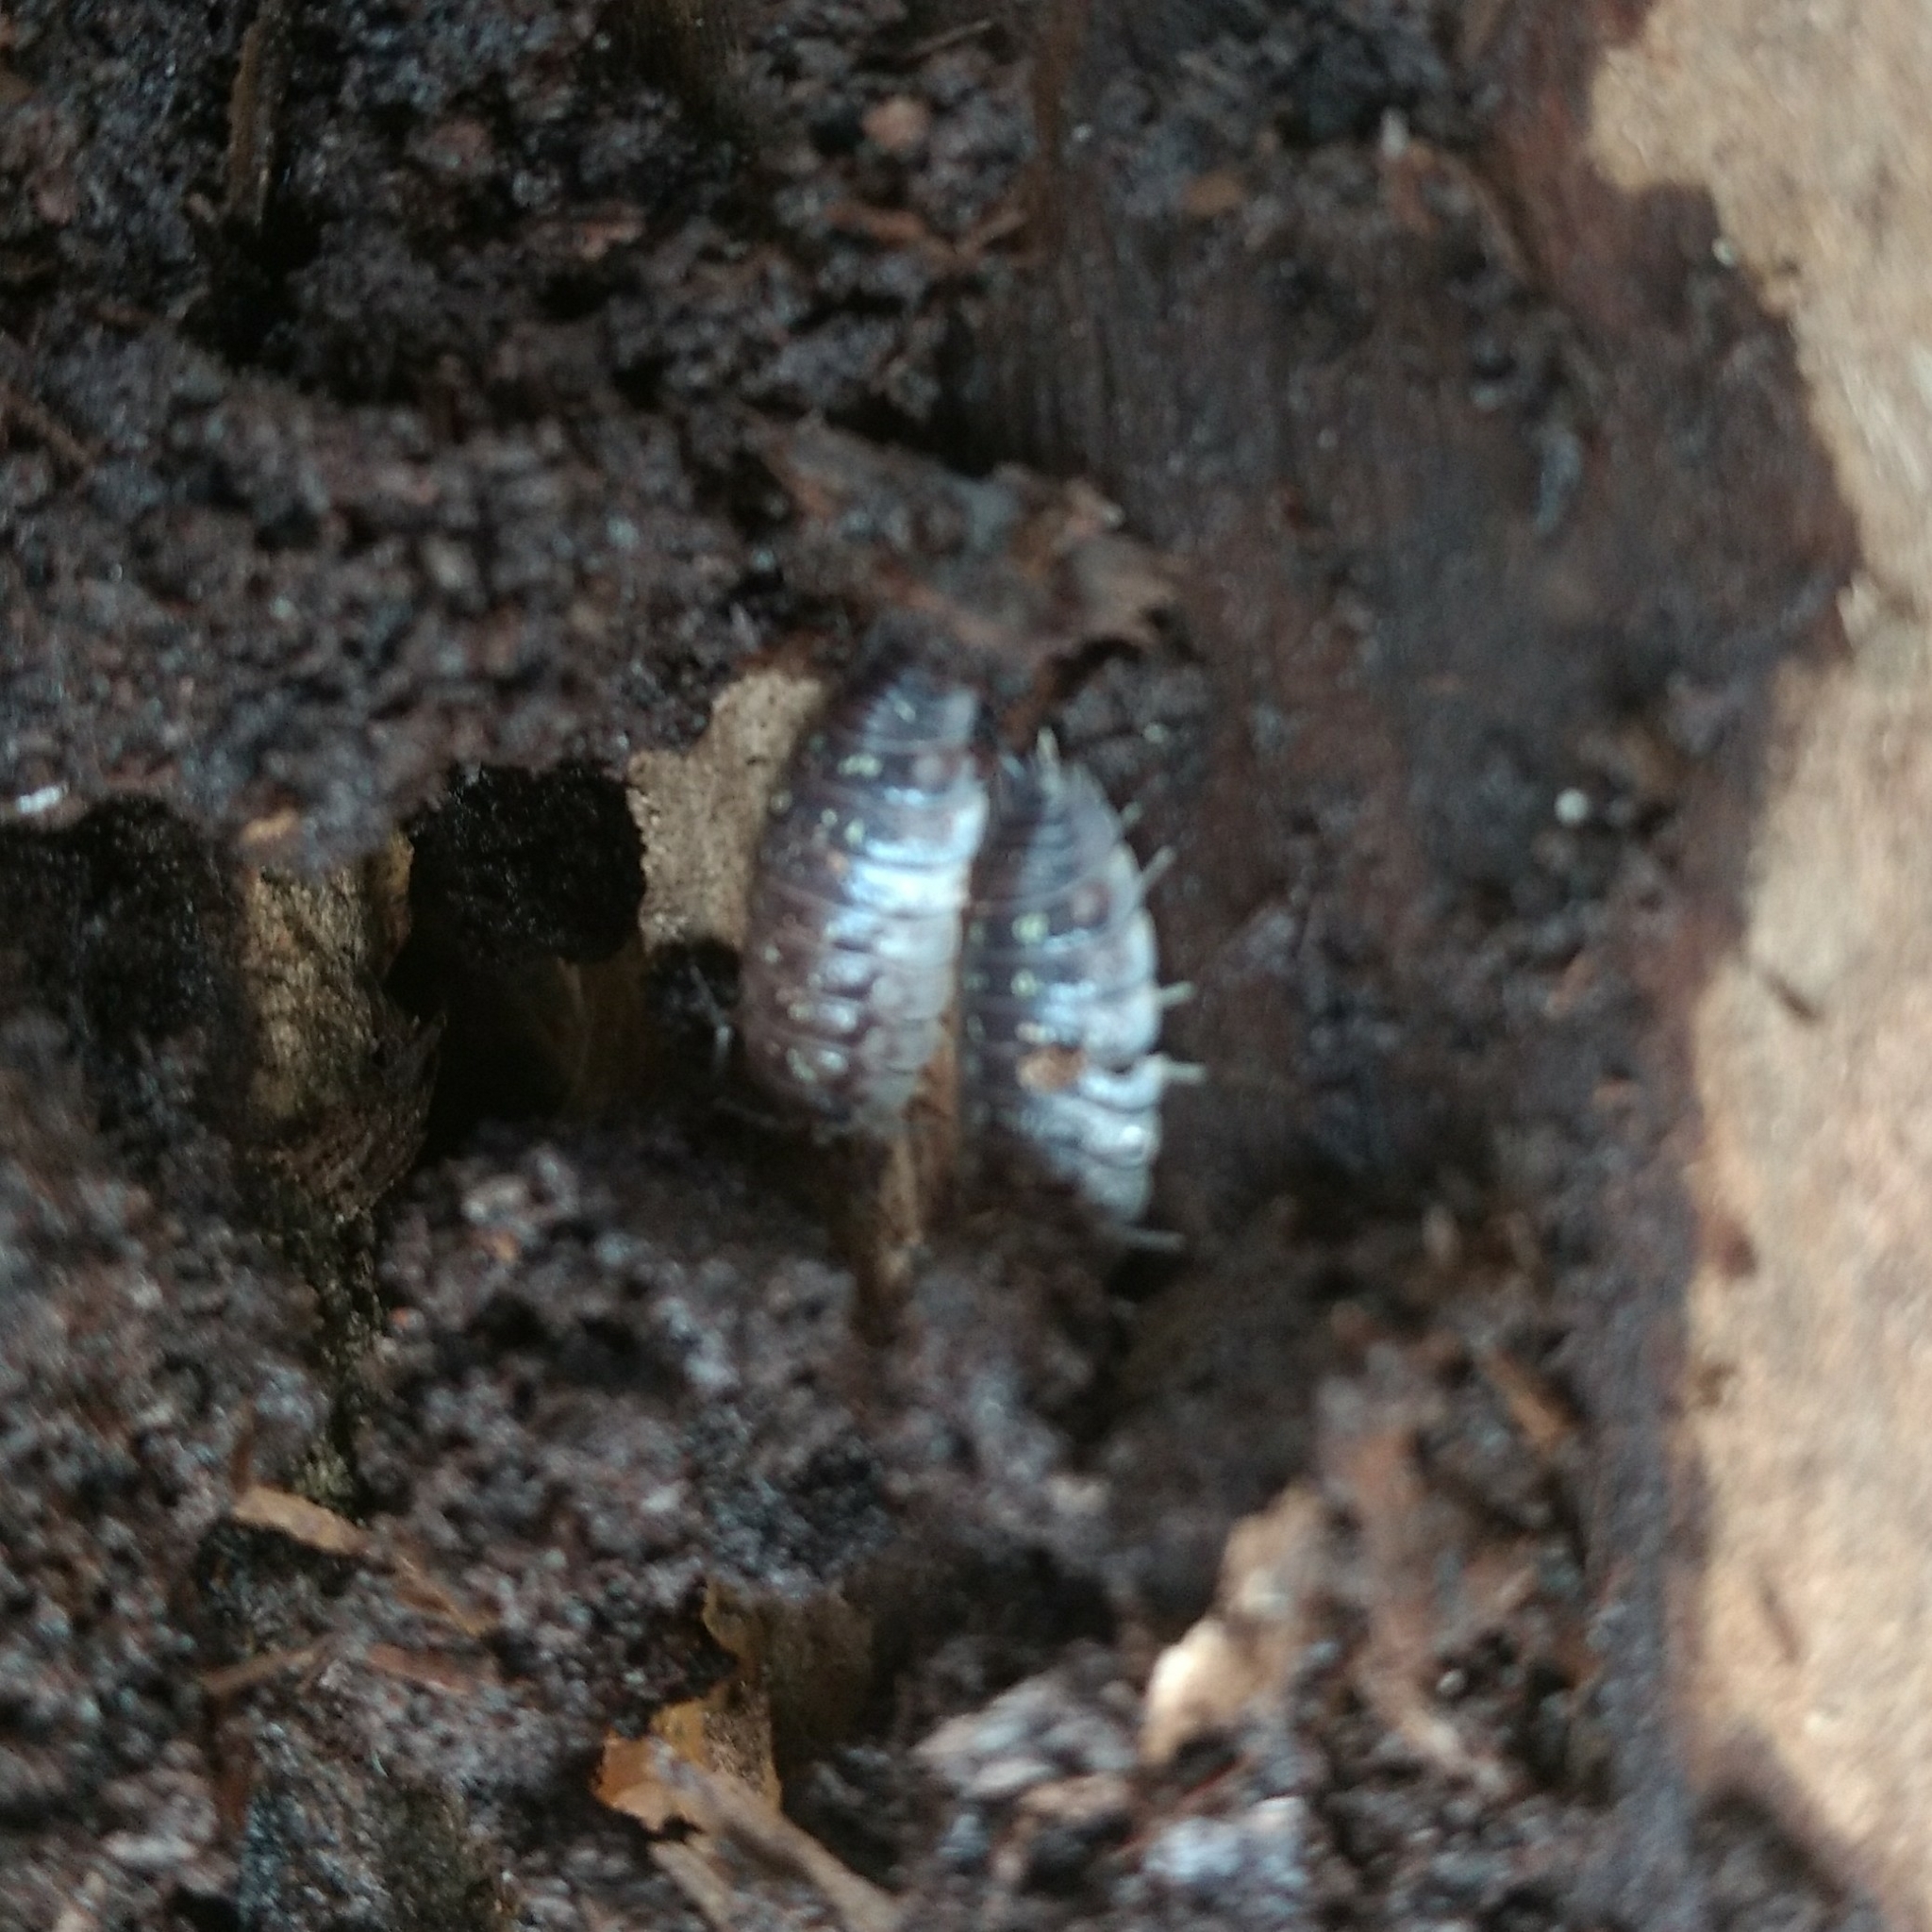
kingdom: Animalia
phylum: Arthropoda
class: Malacostraca
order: Isopoda
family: Oniscidae
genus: Oniscus
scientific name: Oniscus asellus
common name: Common shiny woodlouse
